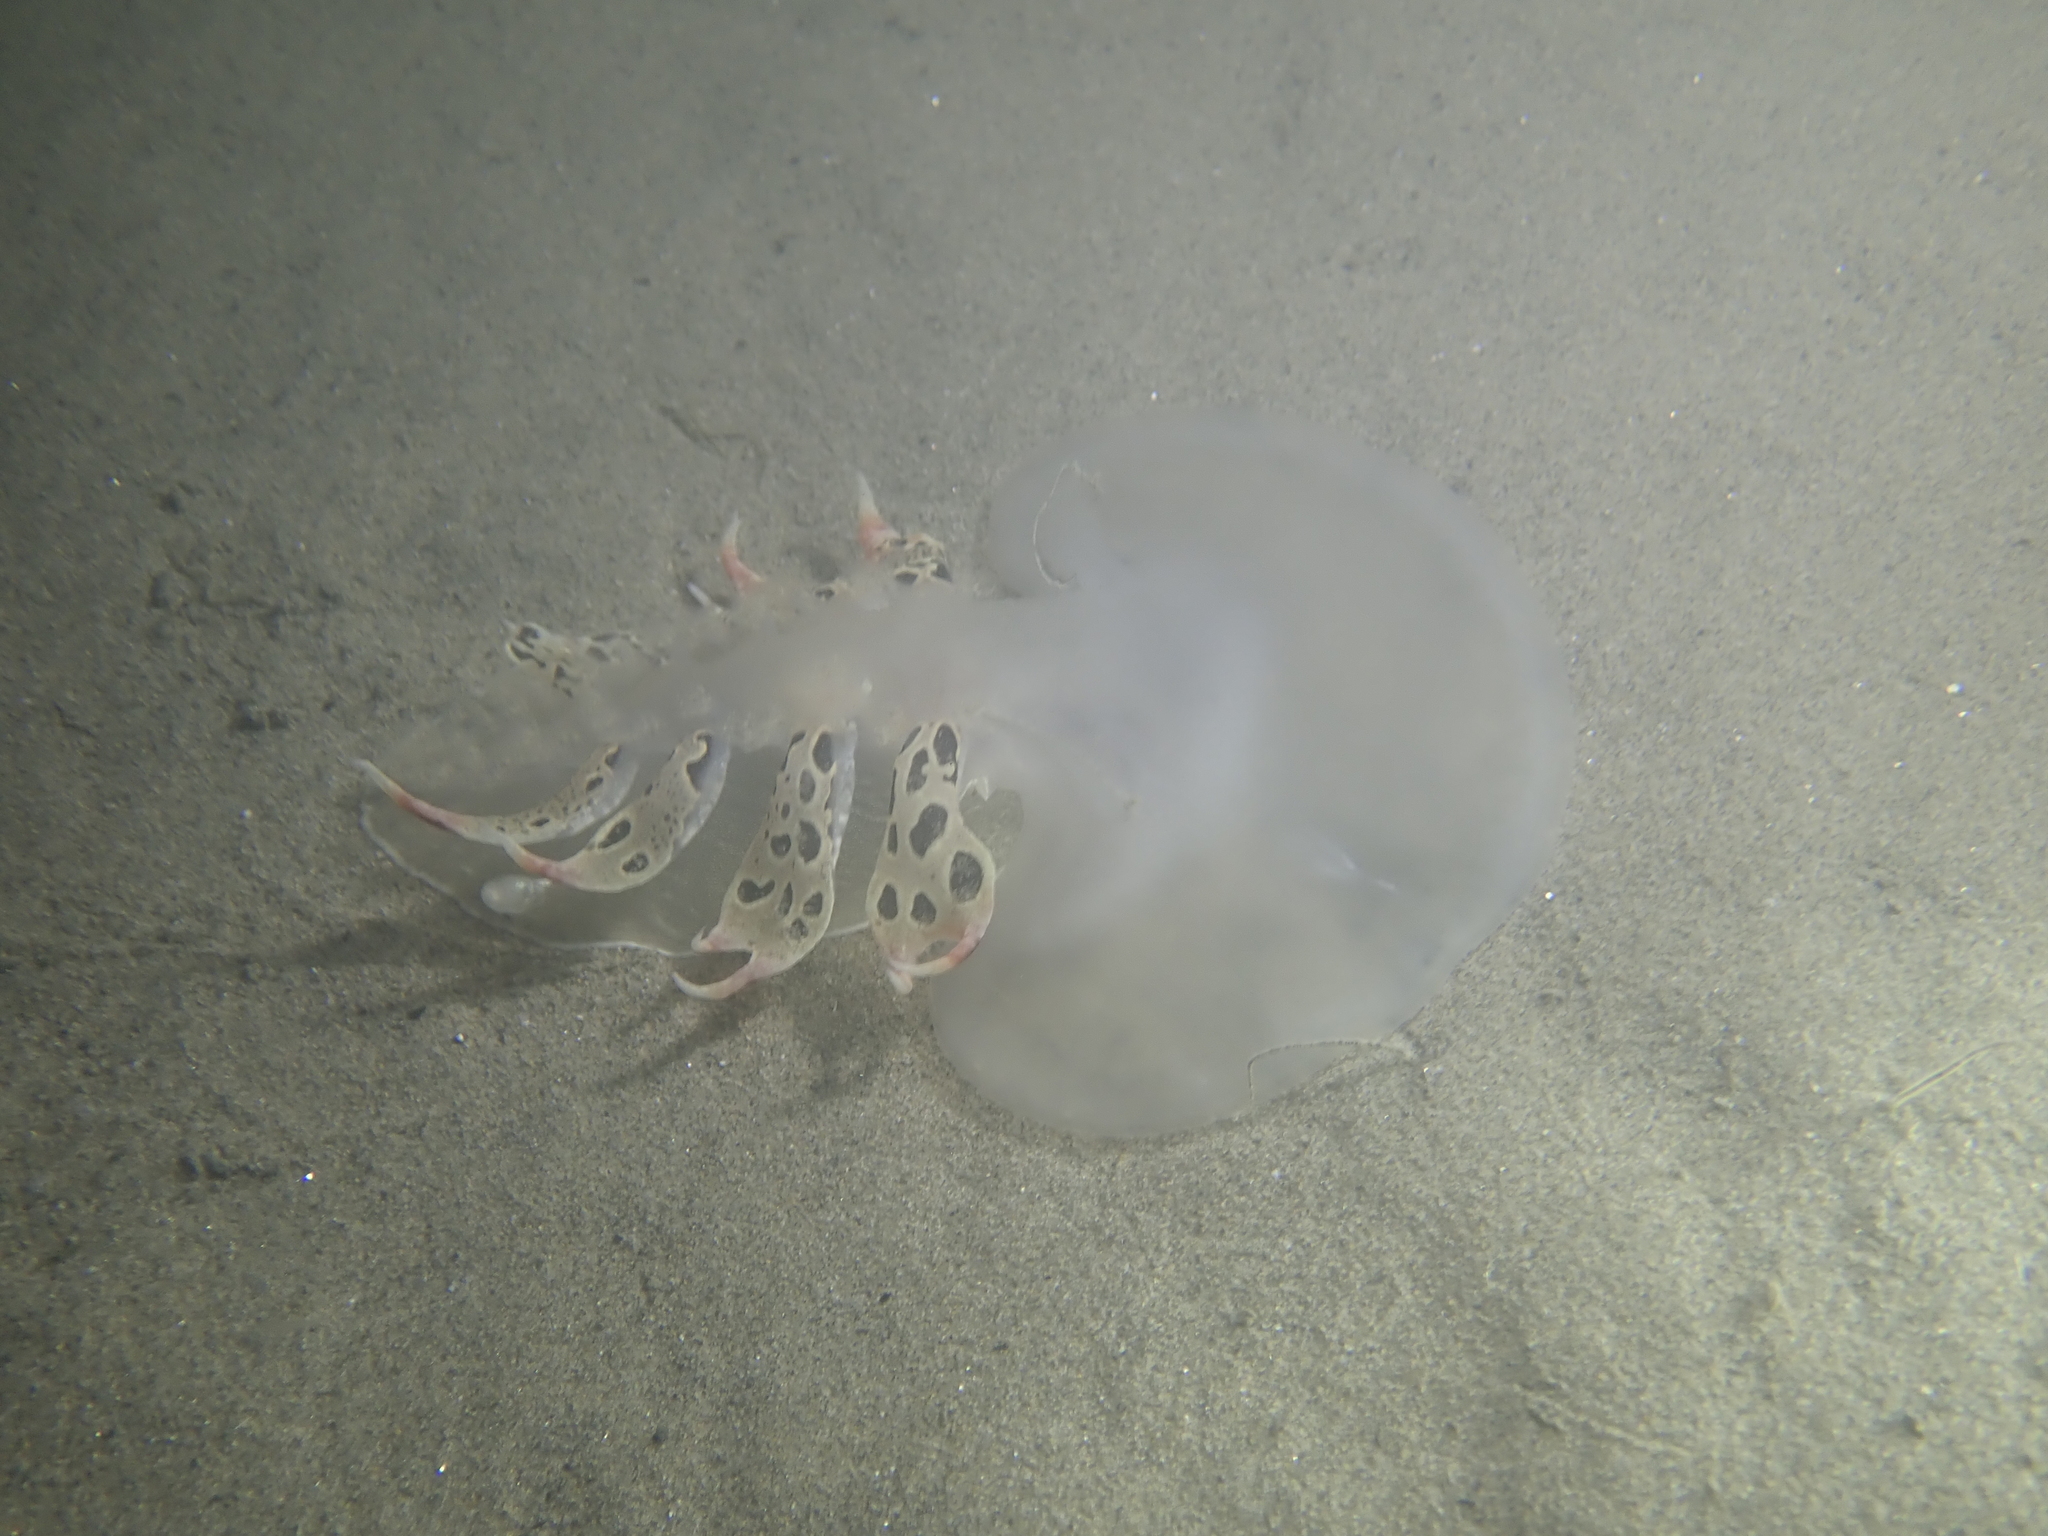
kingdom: Animalia
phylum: Mollusca
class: Gastropoda
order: Nudibranchia
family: Tethydidae
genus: Tethys
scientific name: Tethys fimbria
